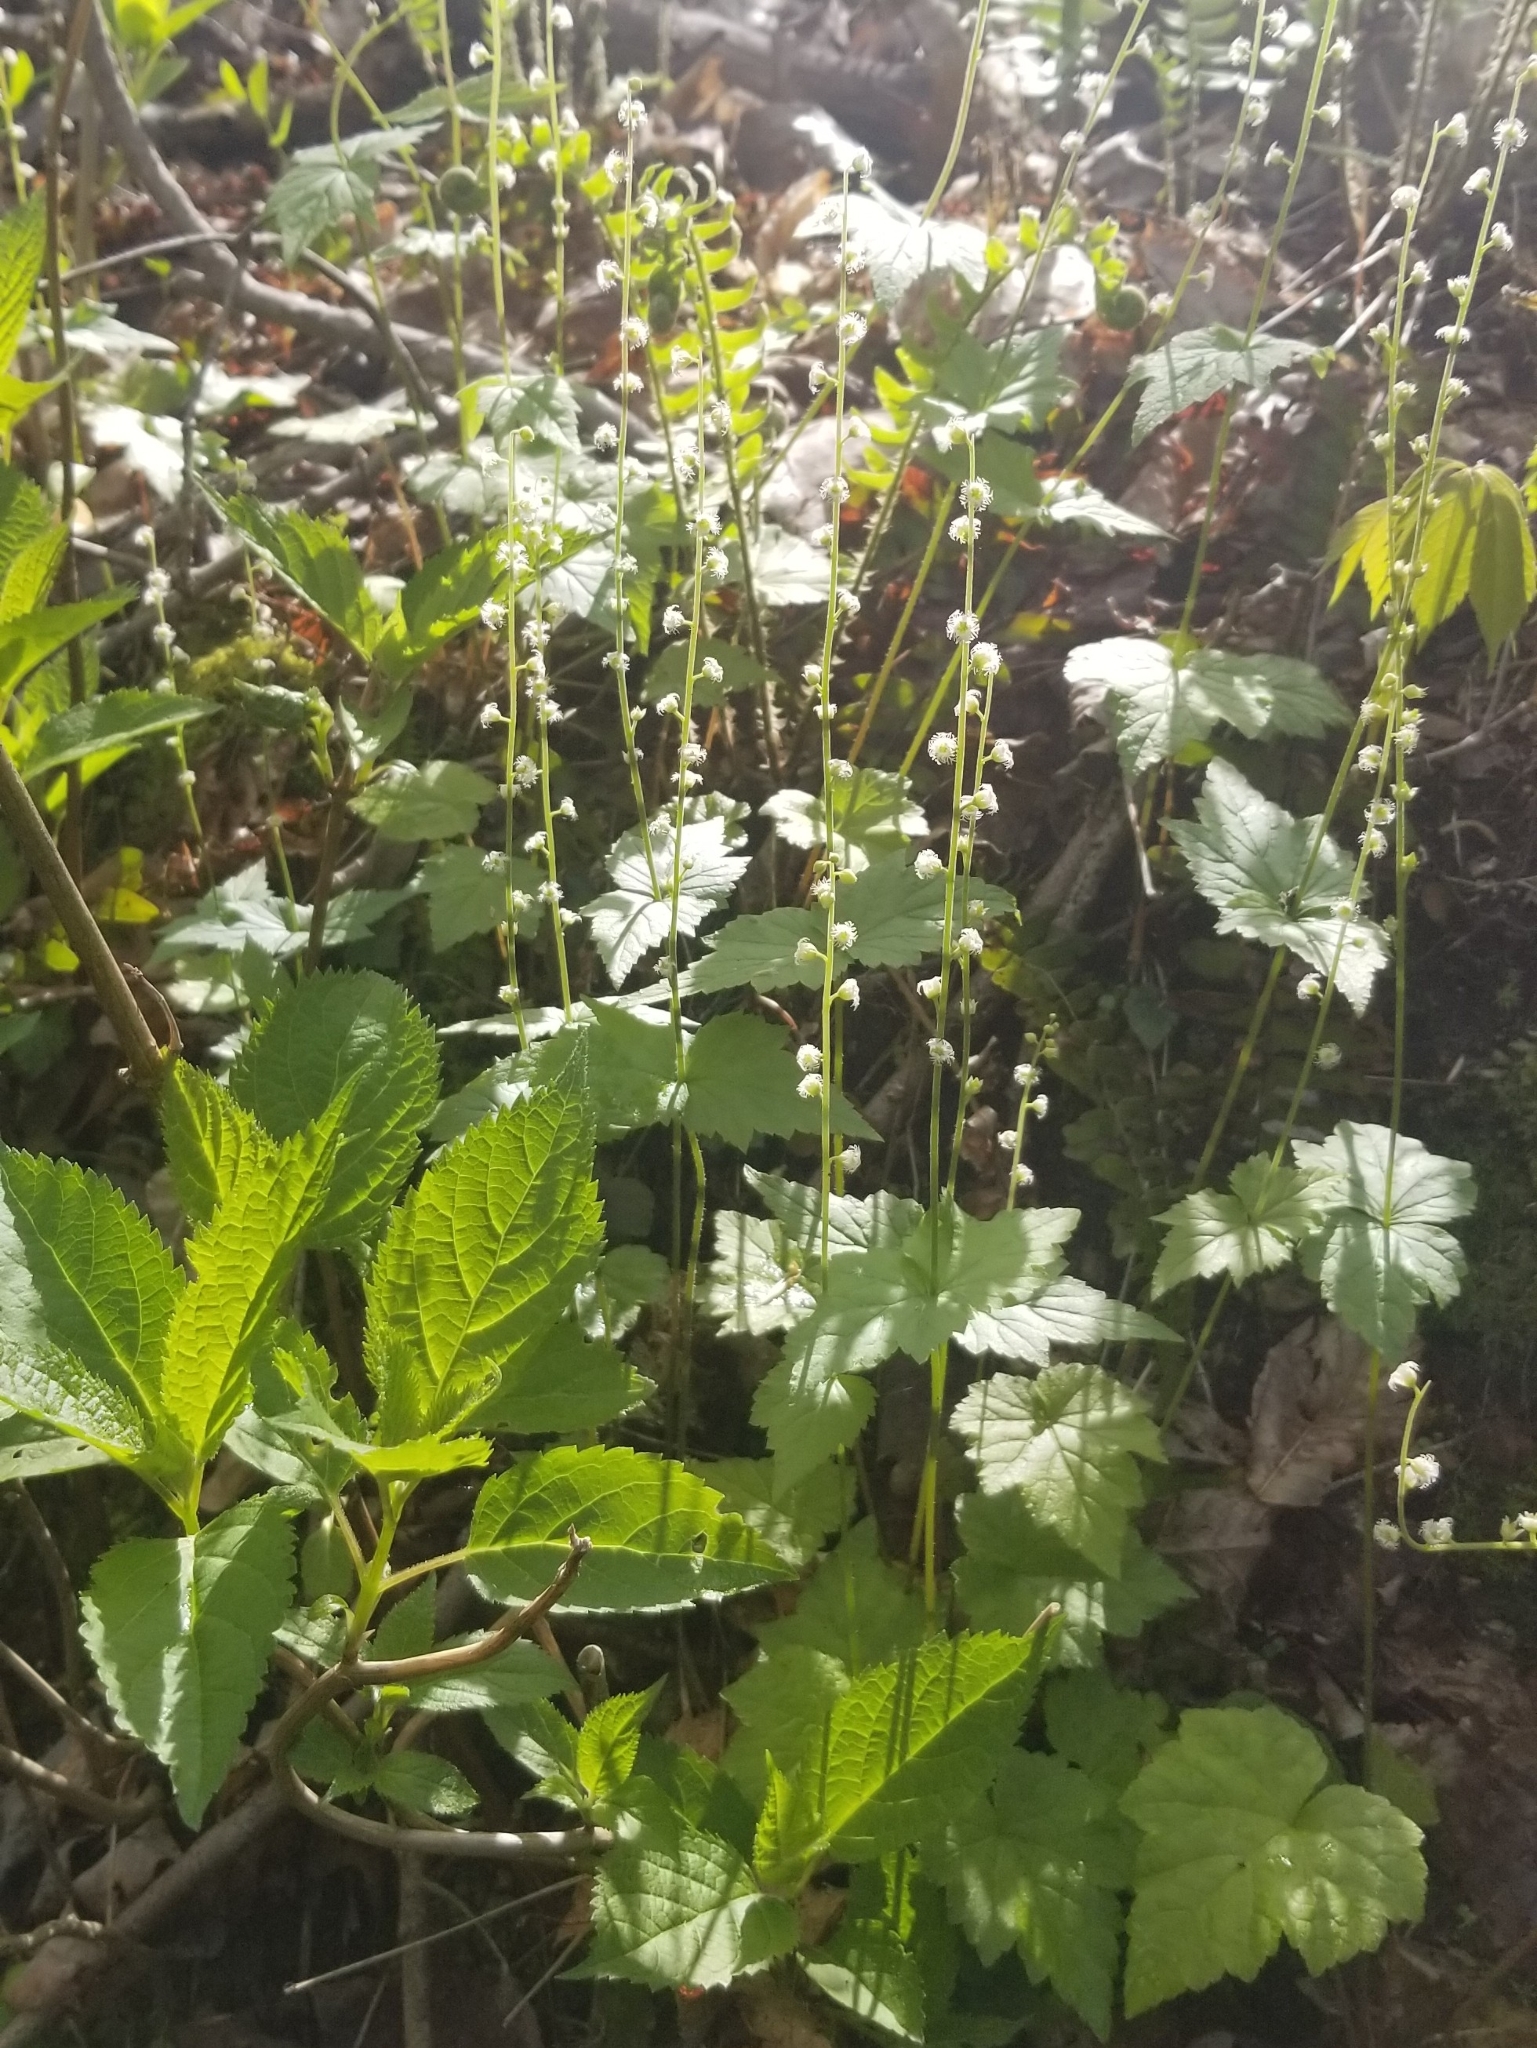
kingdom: Plantae
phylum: Tracheophyta
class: Magnoliopsida
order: Saxifragales
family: Saxifragaceae
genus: Mitella
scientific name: Mitella diphylla
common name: Coolwort
